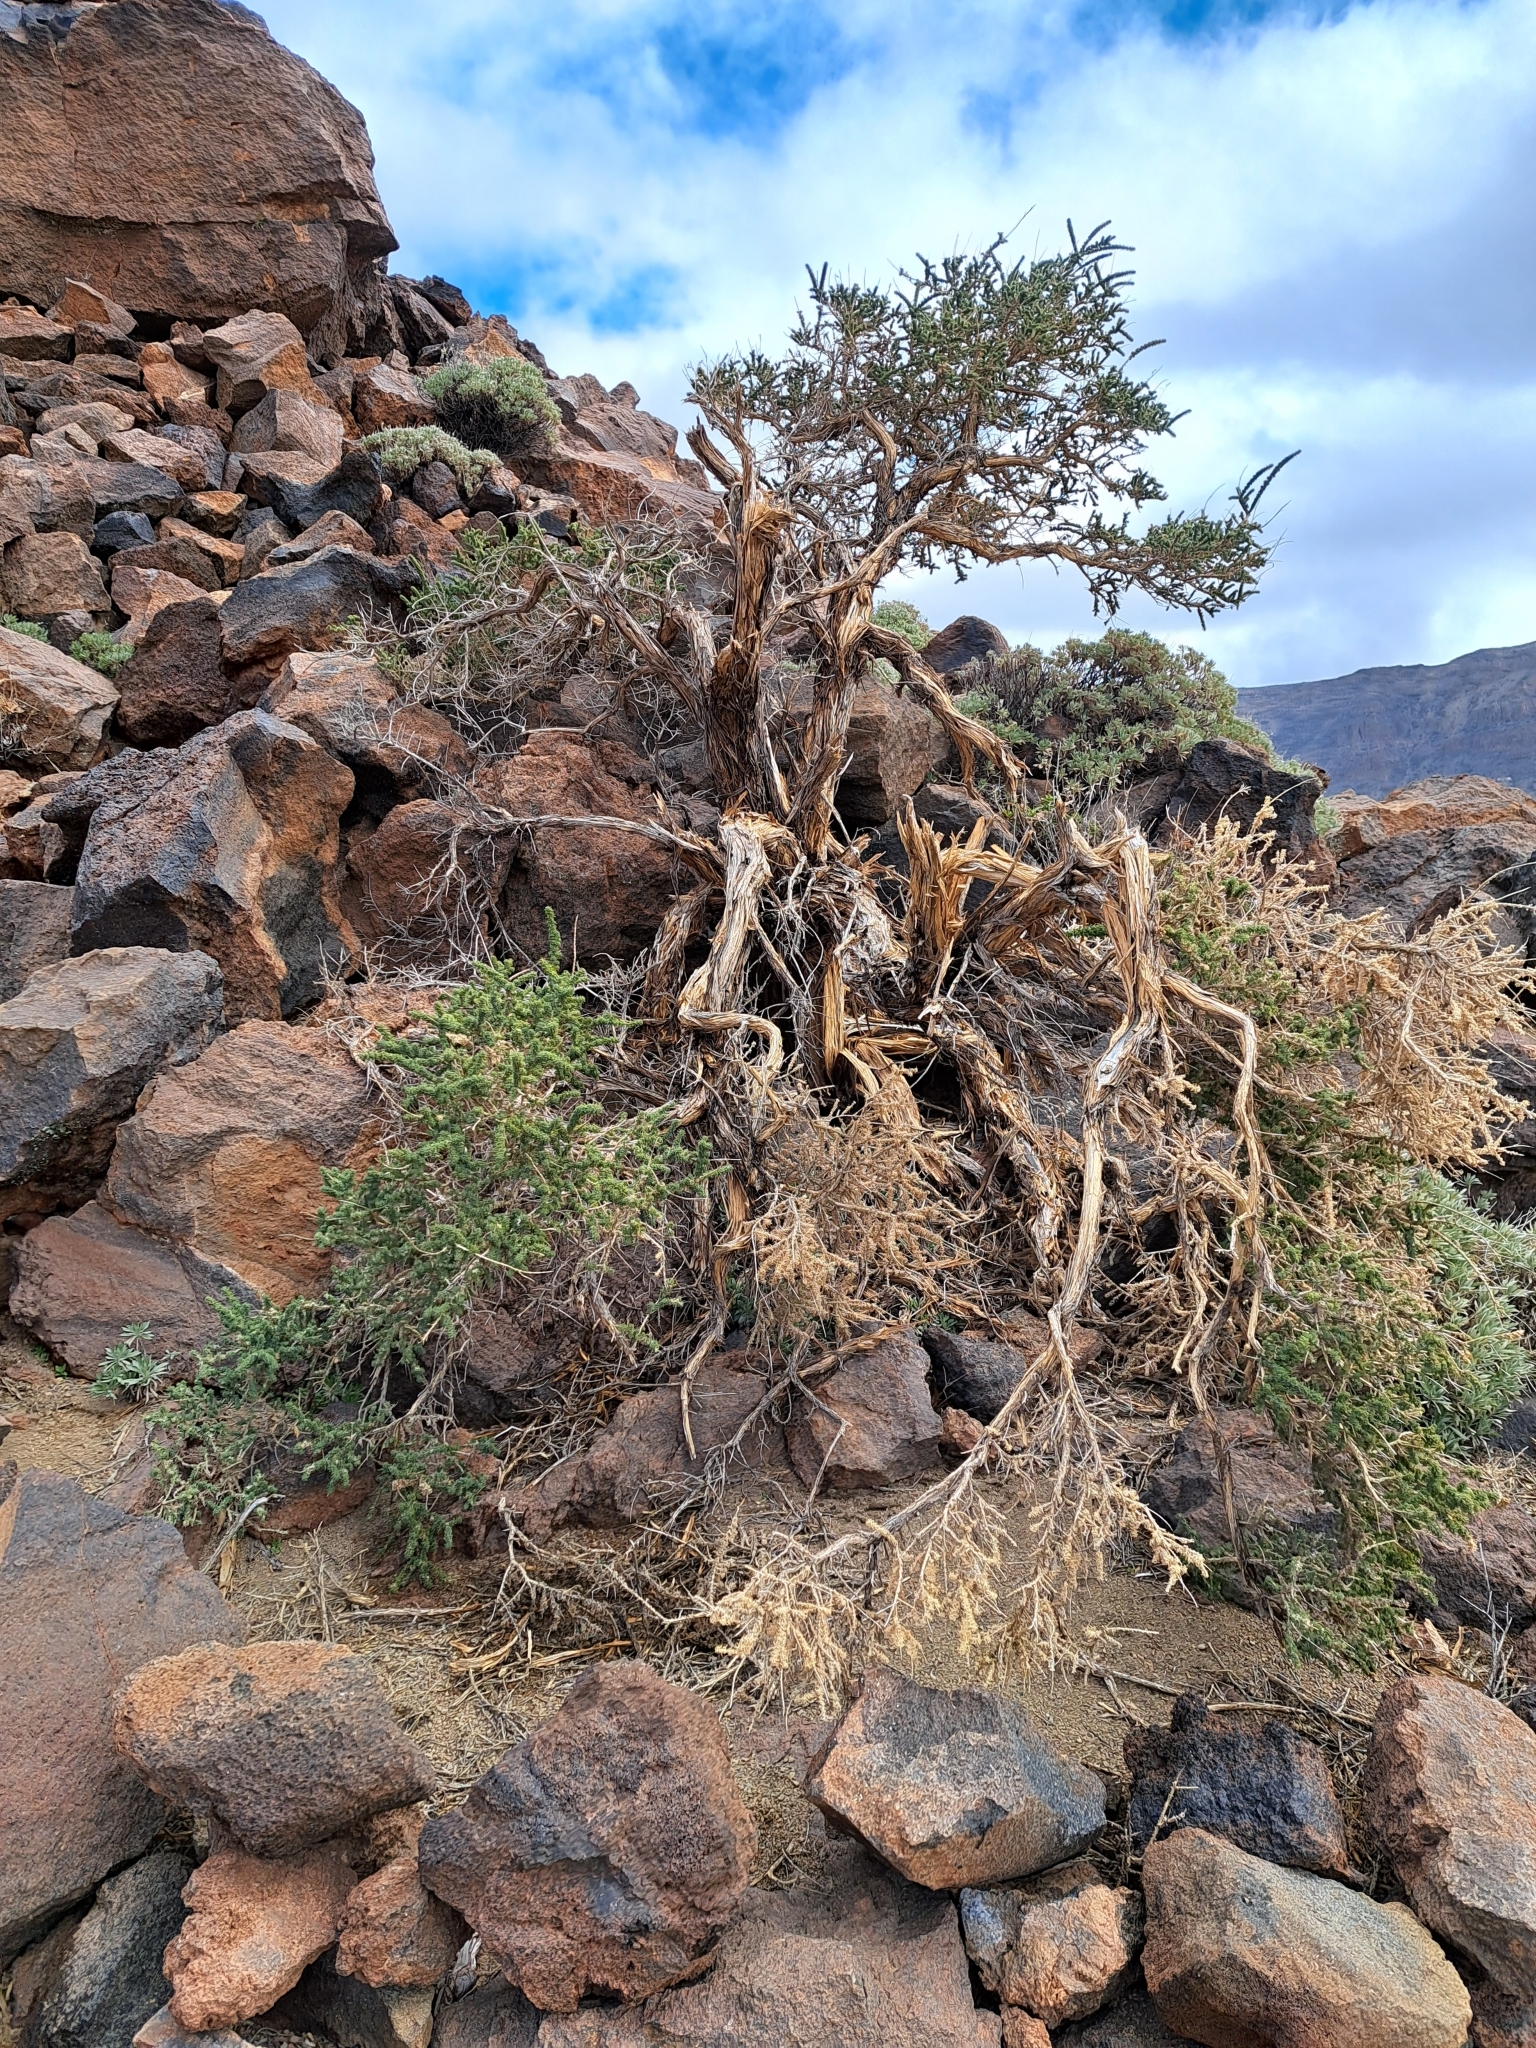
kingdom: Plantae
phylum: Tracheophyta
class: Magnoliopsida
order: Fabales
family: Fabaceae
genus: Adenocarpus
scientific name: Adenocarpus viscosus
